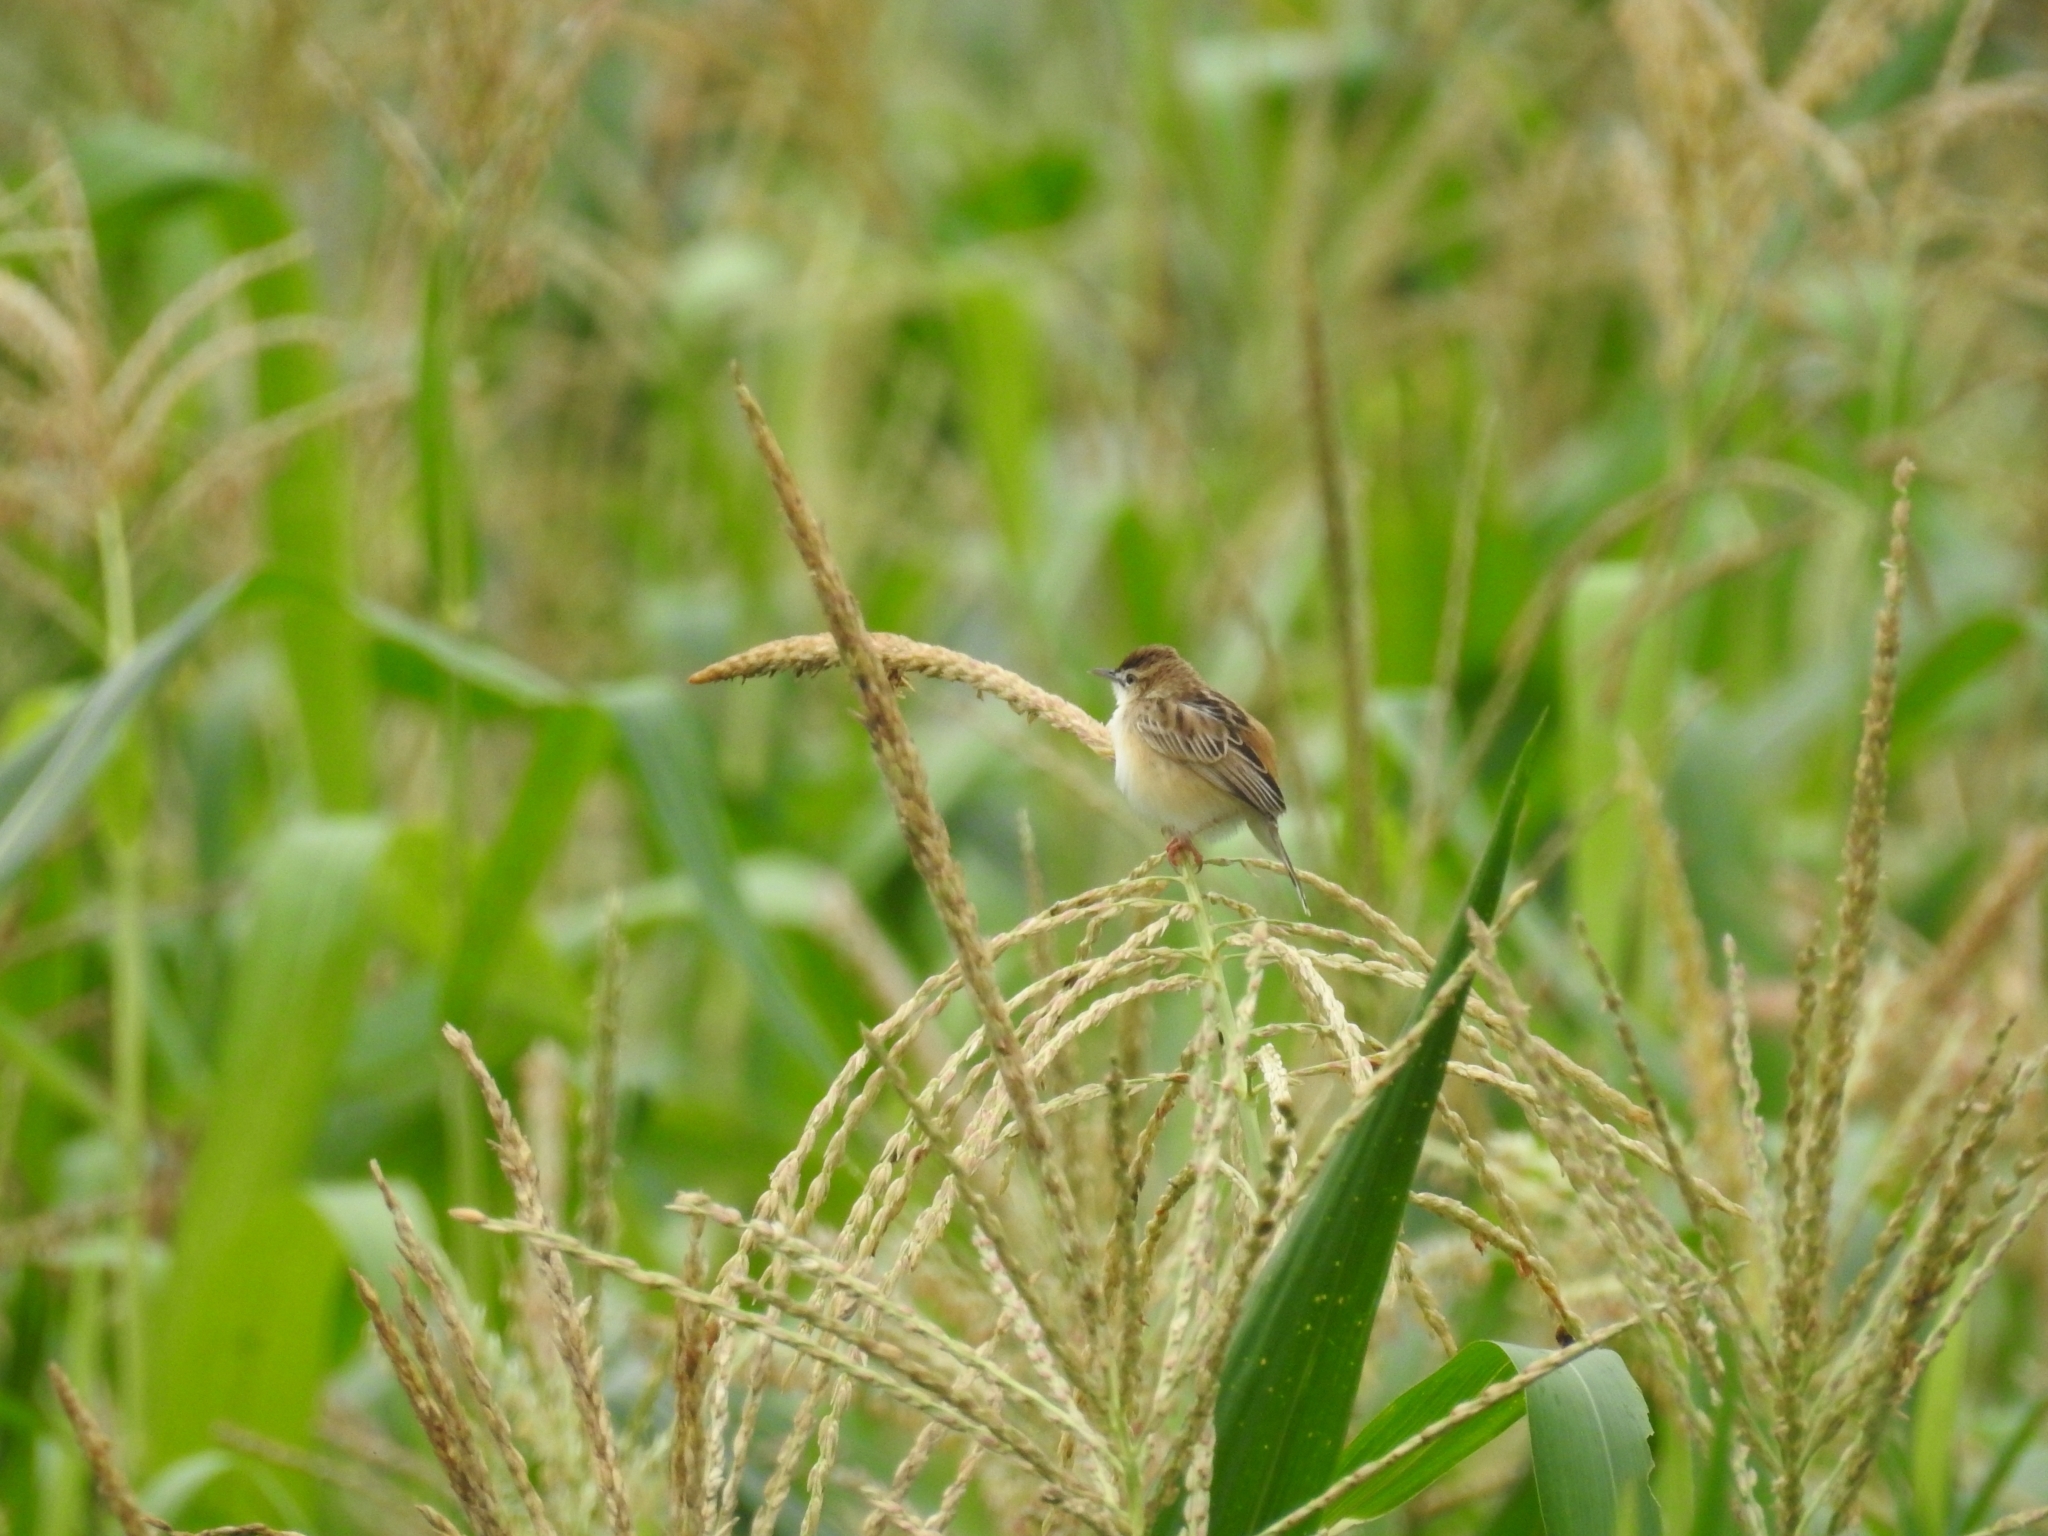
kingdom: Animalia
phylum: Chordata
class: Aves
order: Passeriformes
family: Cisticolidae
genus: Cisticola
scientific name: Cisticola juncidis
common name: Zitting cisticola
